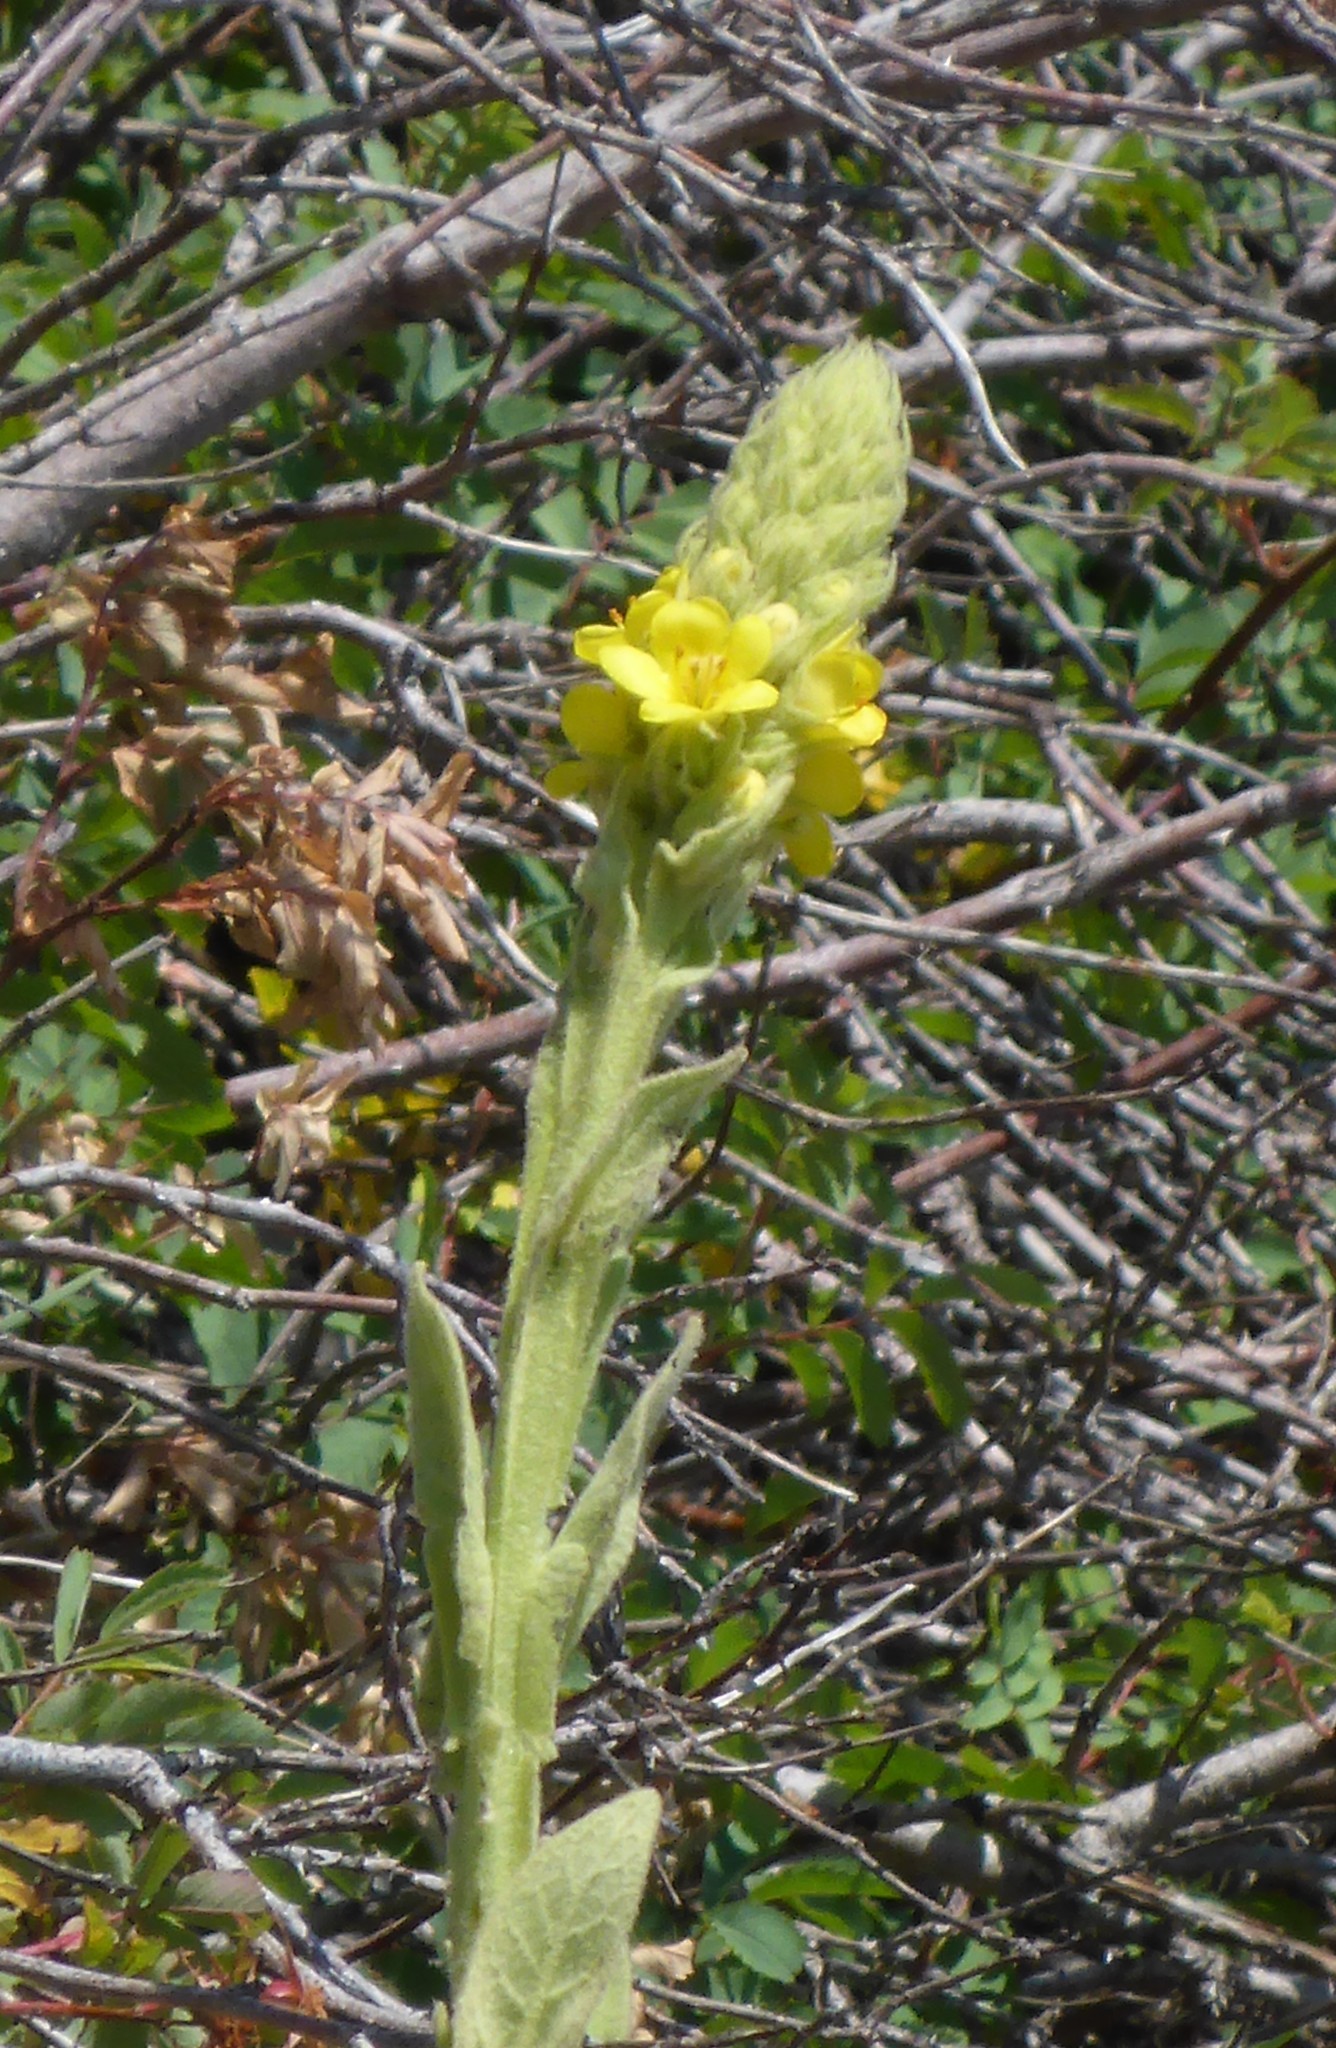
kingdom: Plantae
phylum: Tracheophyta
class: Magnoliopsida
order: Lamiales
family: Scrophulariaceae
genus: Verbascum
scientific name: Verbascum thapsus
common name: Common mullein
